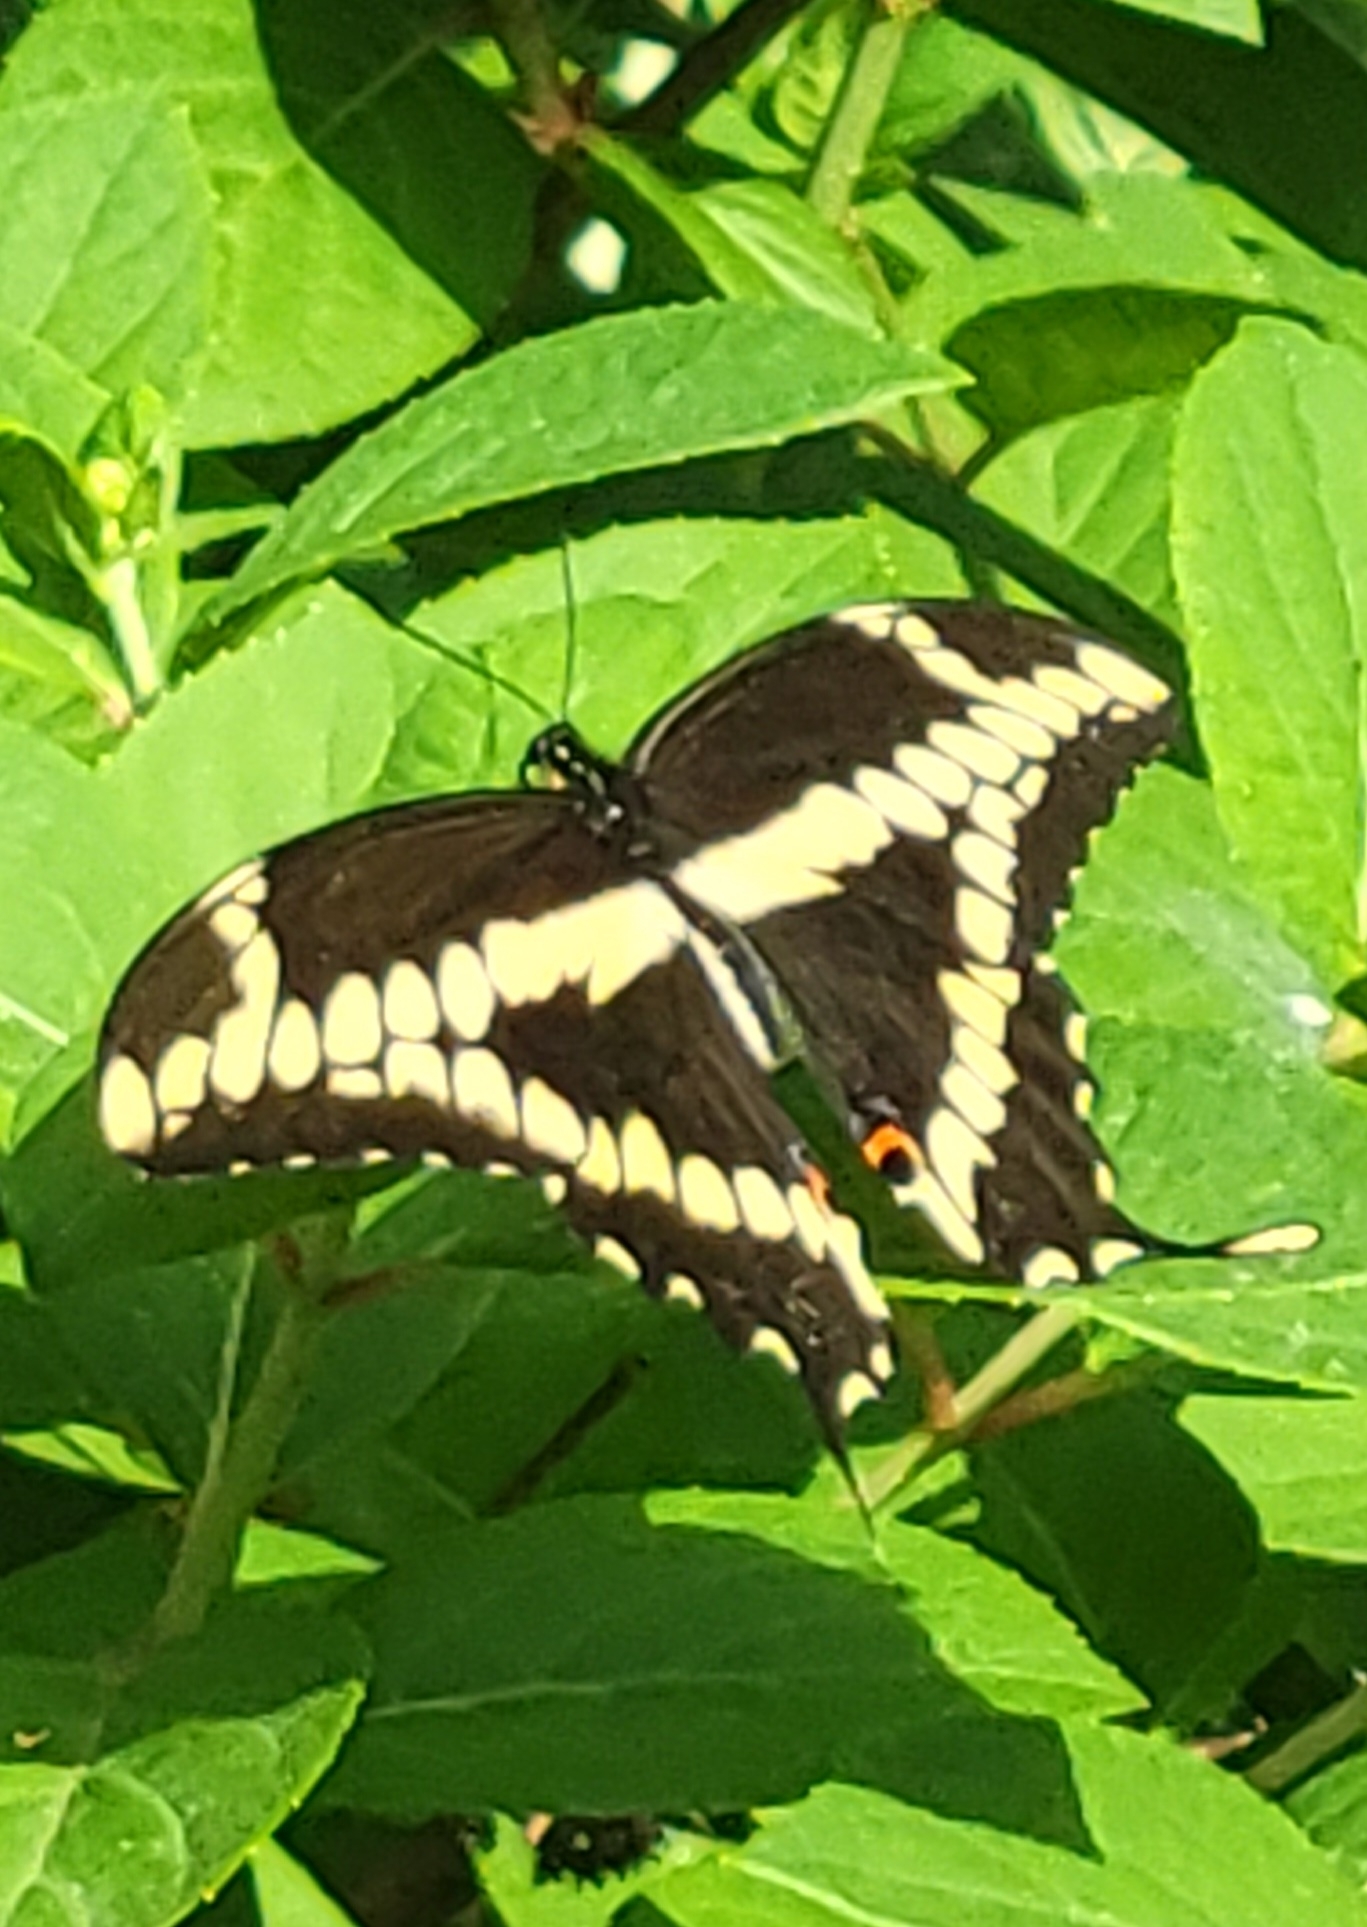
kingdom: Animalia
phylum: Arthropoda
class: Insecta
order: Lepidoptera
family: Papilionidae
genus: Papilio
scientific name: Papilio cresphontes
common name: Giant swallowtail
